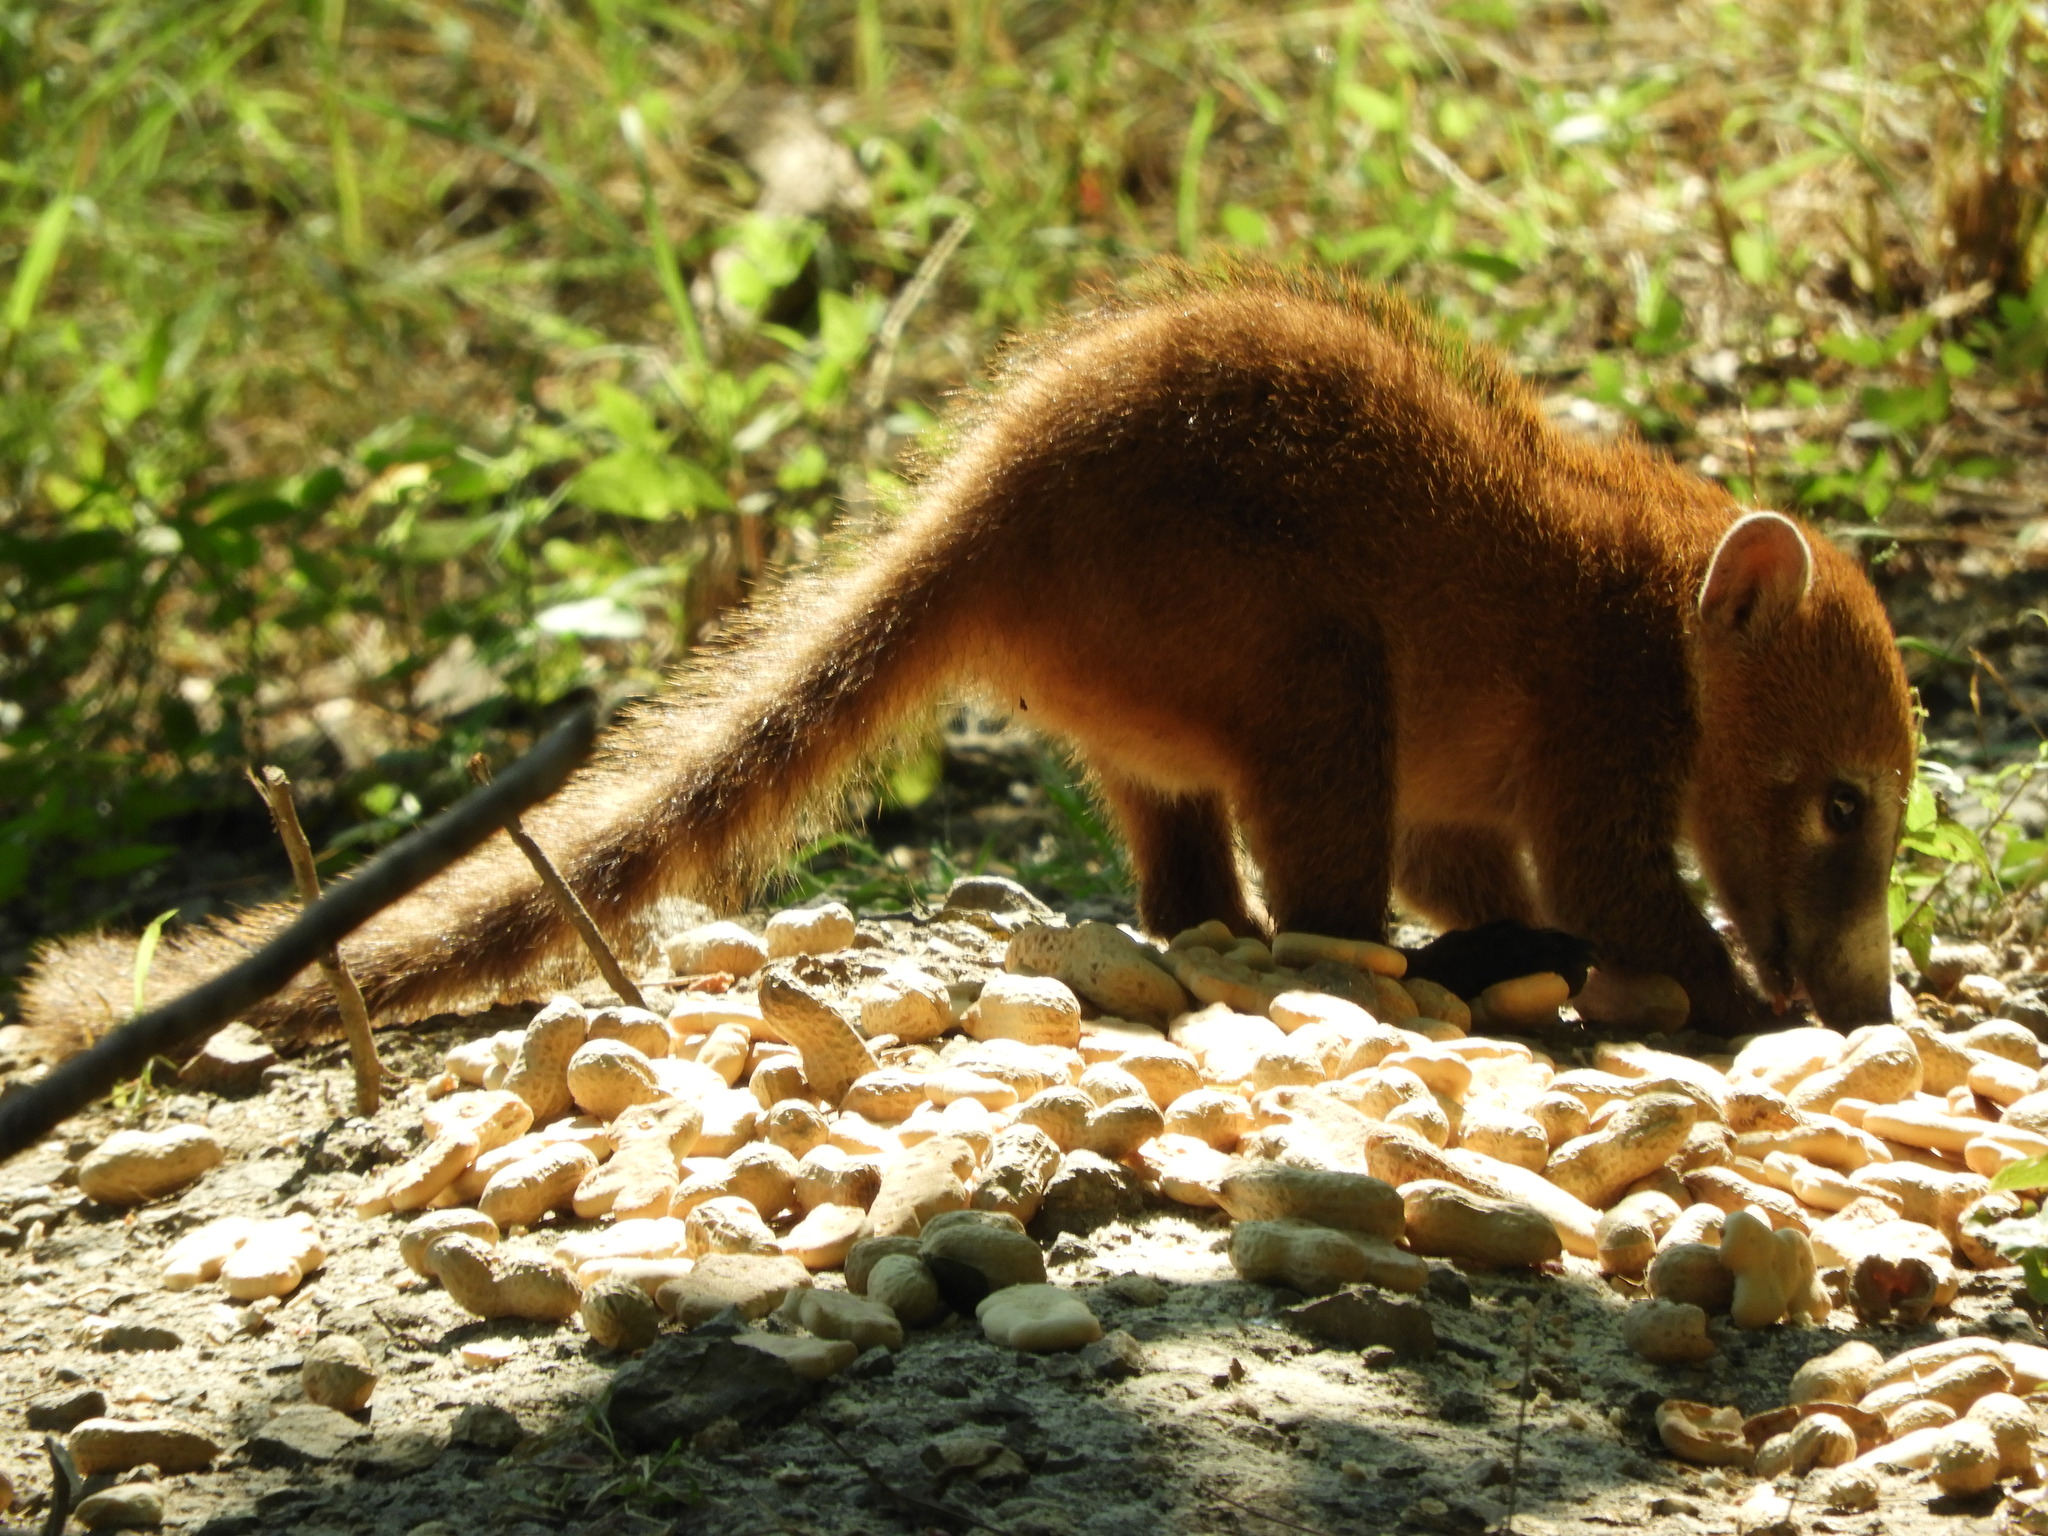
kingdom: Animalia
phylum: Chordata
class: Mammalia
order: Carnivora
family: Procyonidae
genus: Nasua
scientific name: Nasua narica
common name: White-nosed coati
